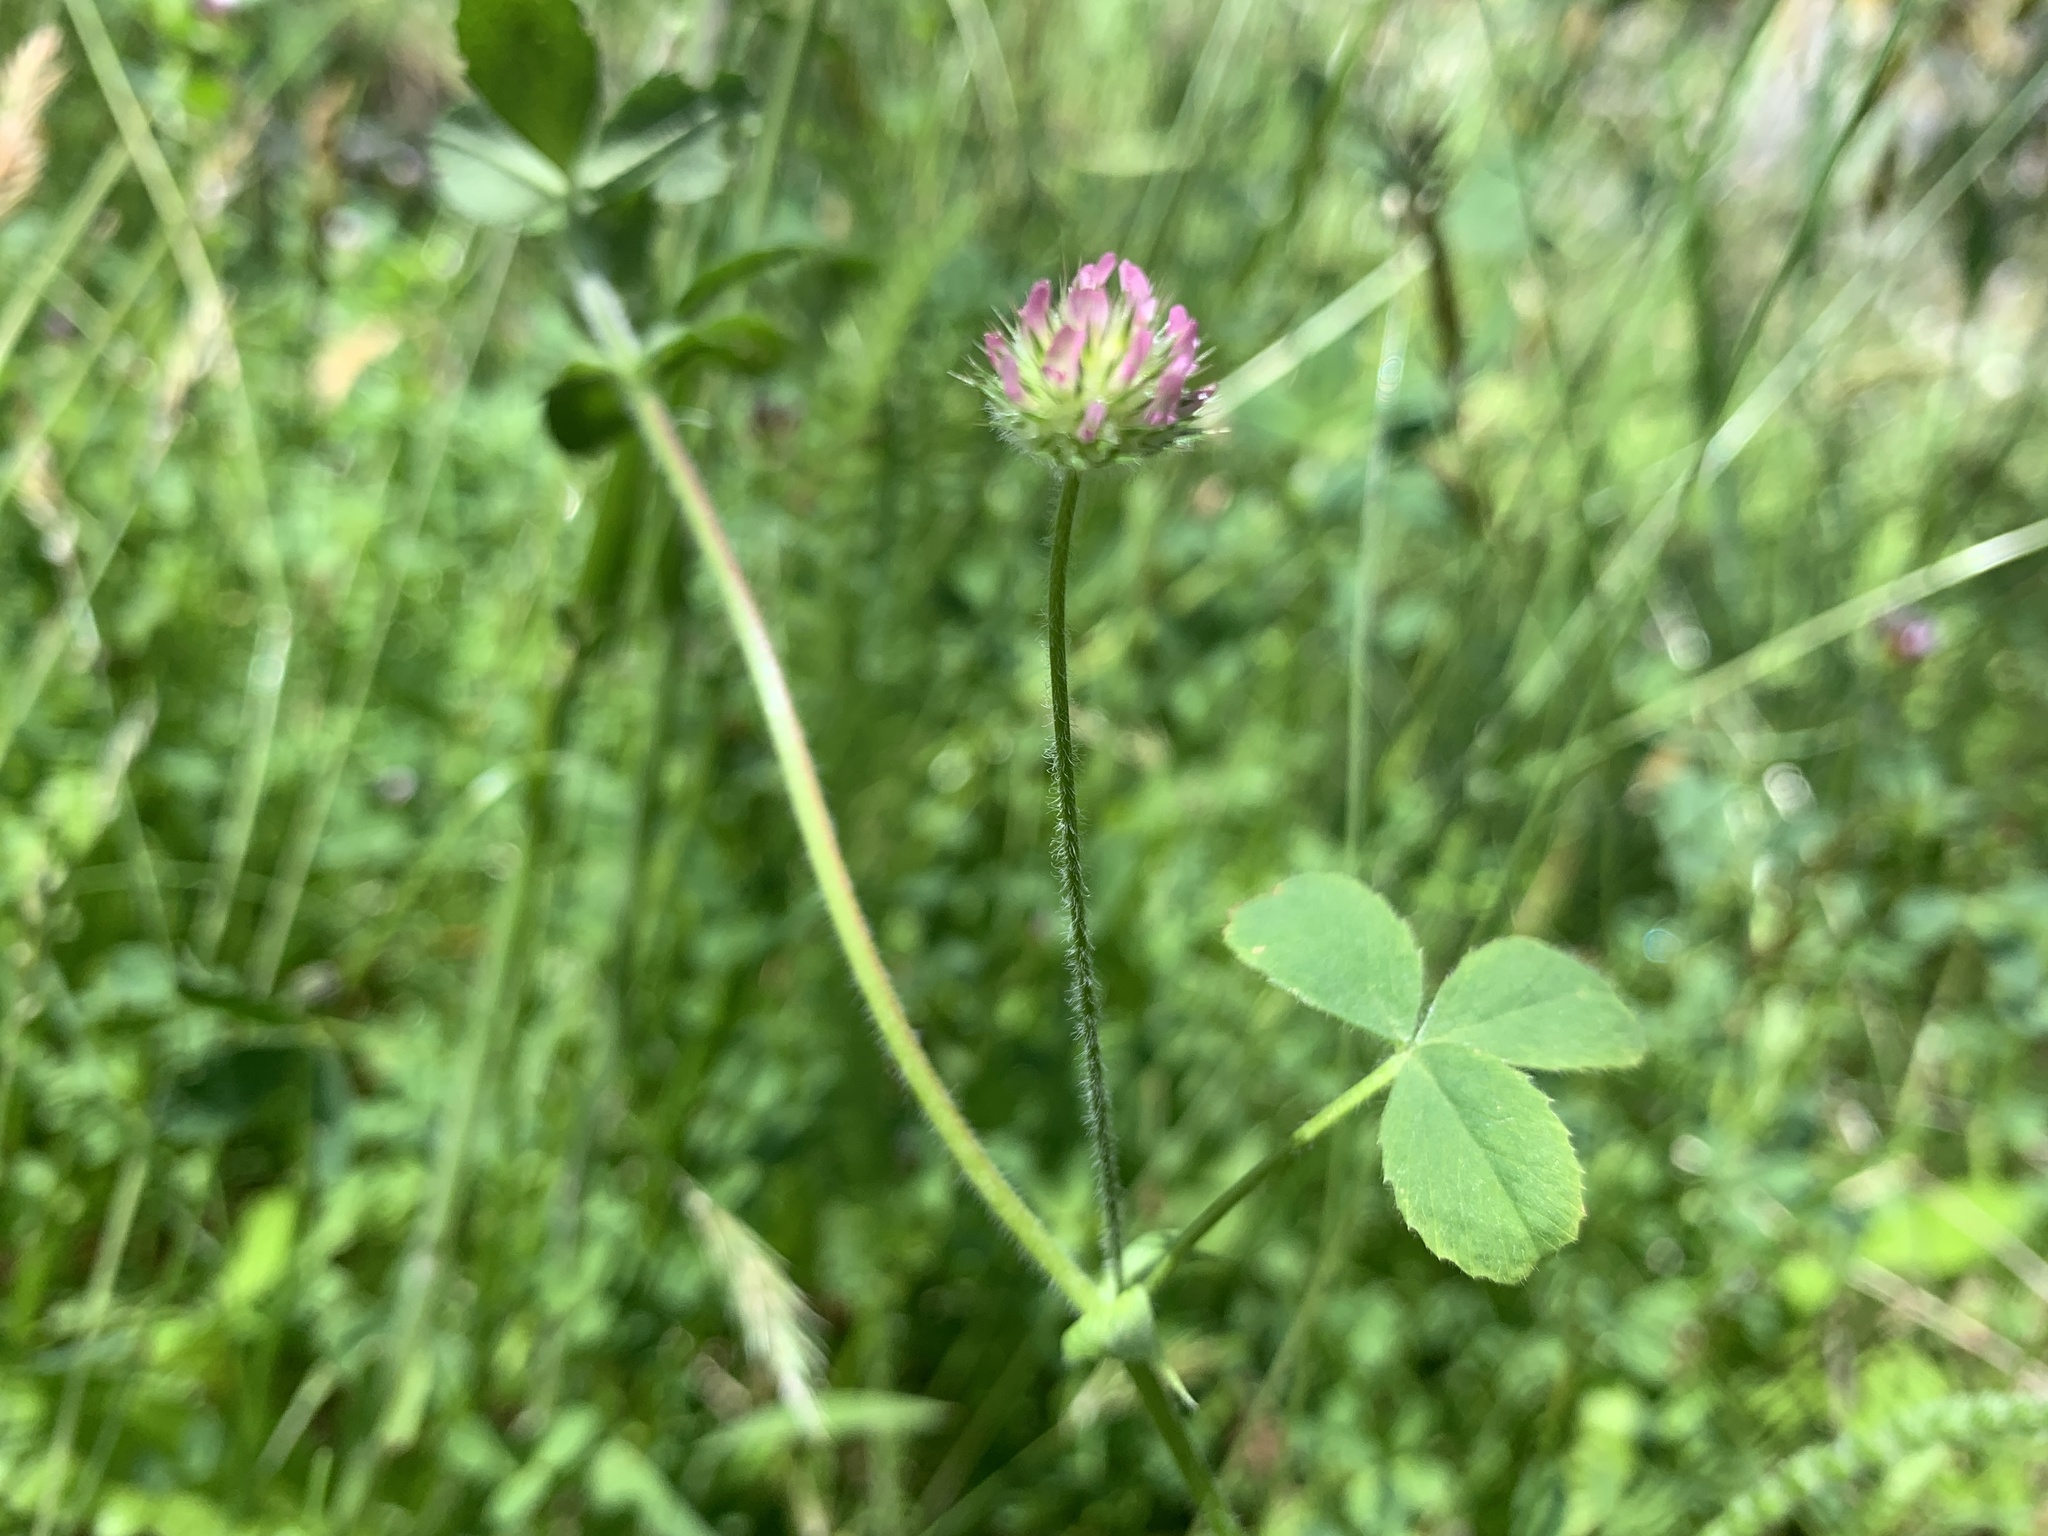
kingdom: Plantae
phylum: Tracheophyta
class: Magnoliopsida
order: Fabales
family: Fabaceae
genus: Trifolium
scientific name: Trifolium microcephalum
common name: Maiden clover
